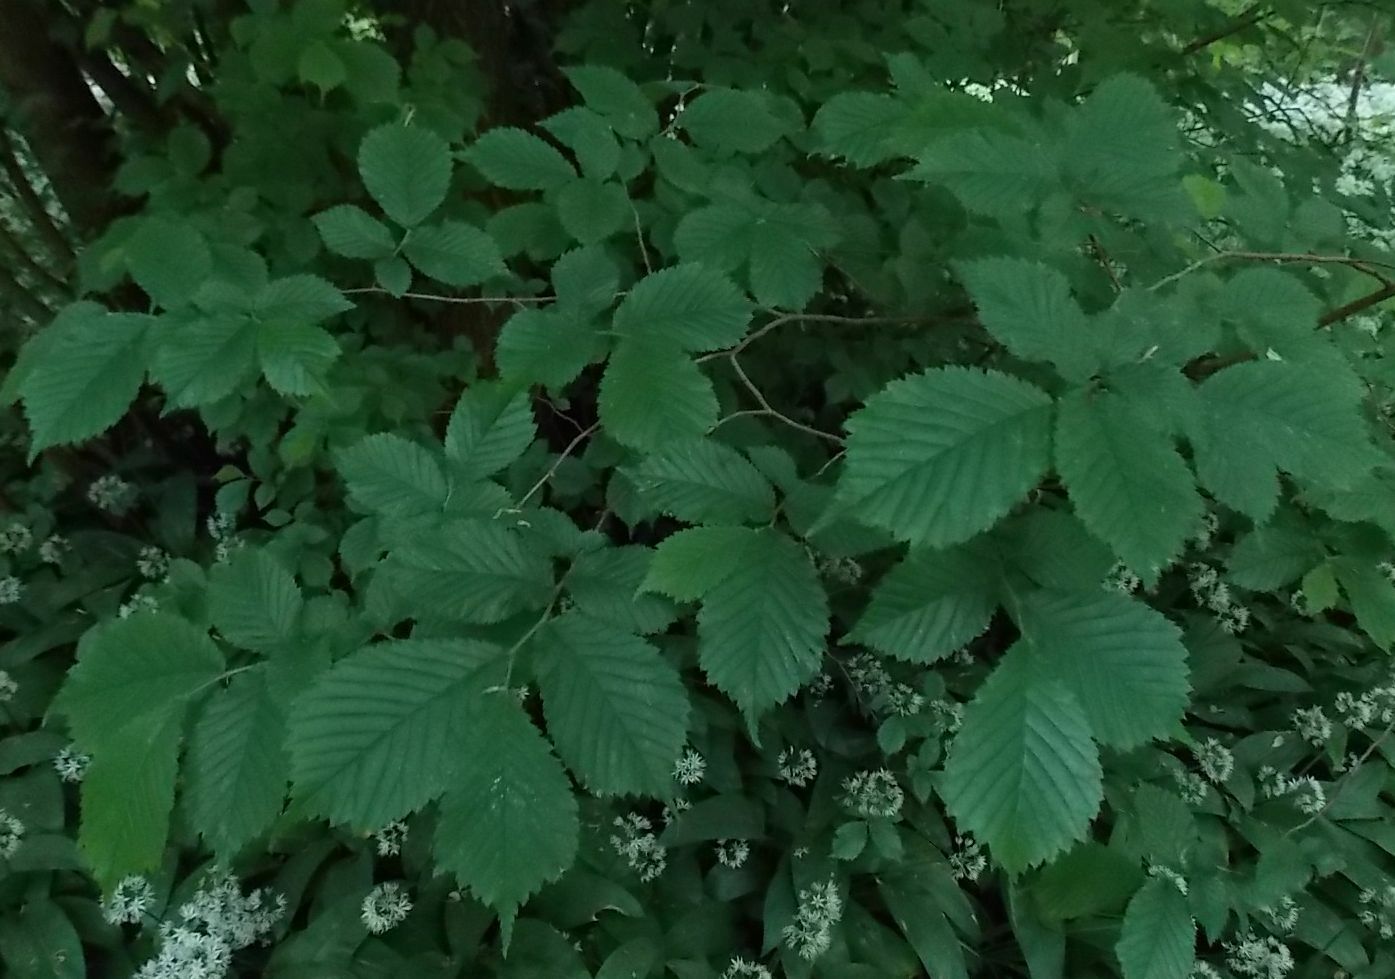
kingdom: Plantae
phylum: Tracheophyta
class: Magnoliopsida
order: Rosales
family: Ulmaceae
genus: Ulmus
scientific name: Ulmus glabra
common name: Wych elm
